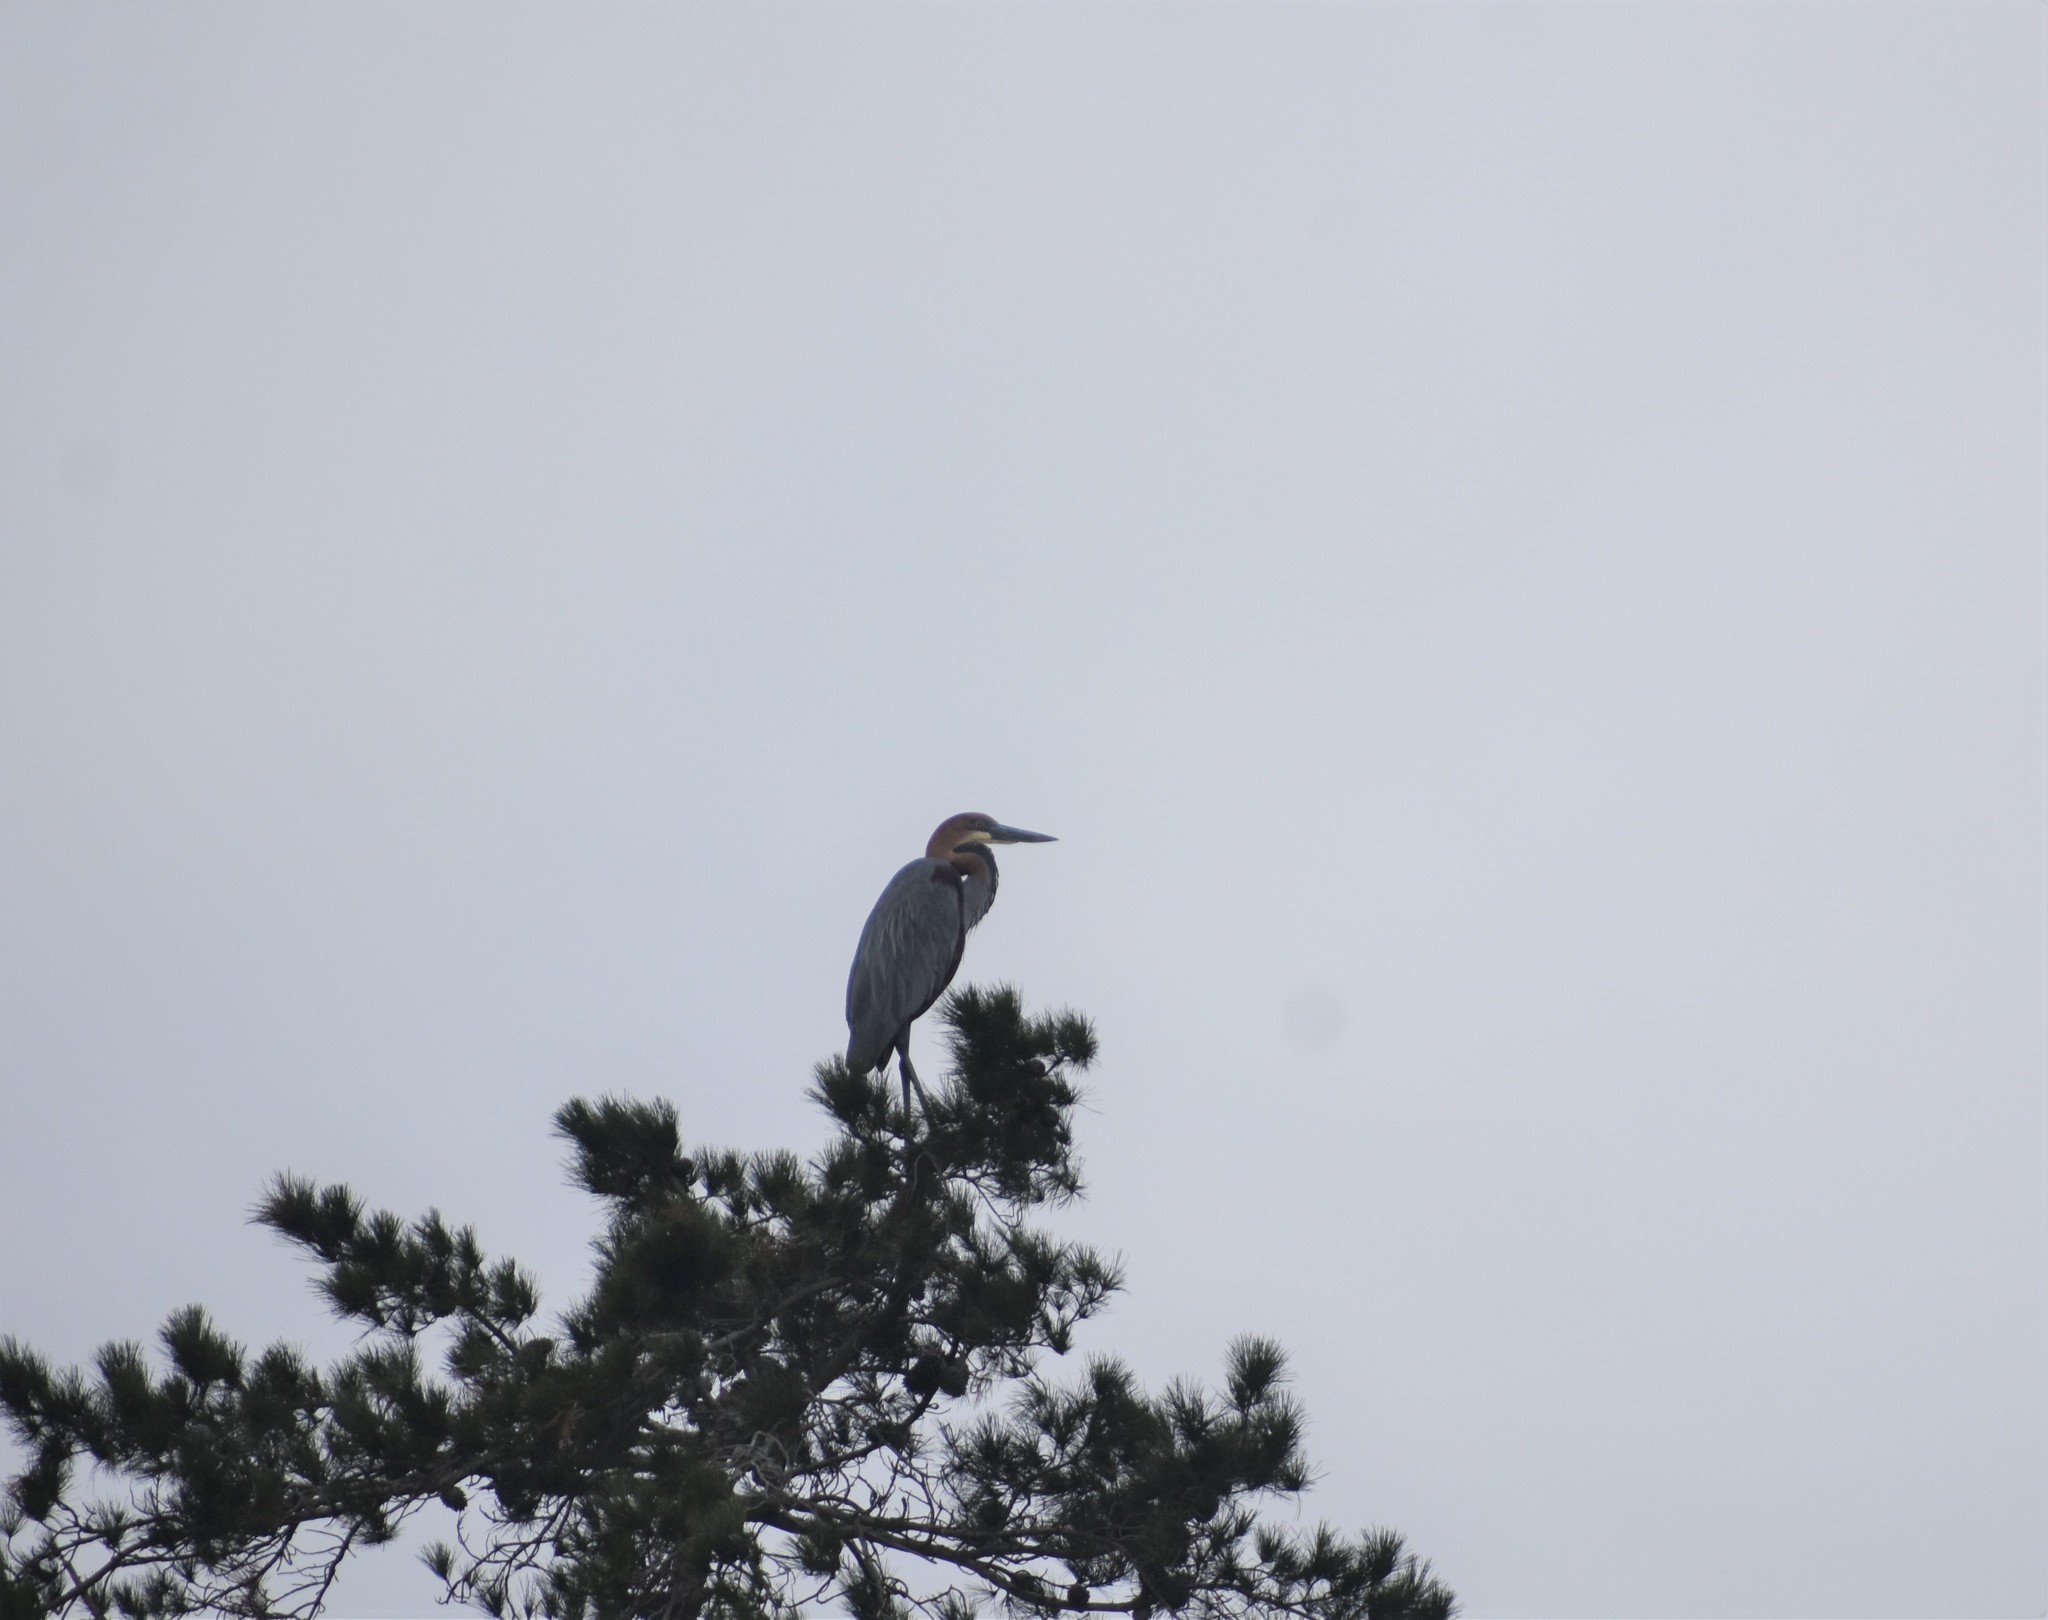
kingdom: Animalia
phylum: Chordata
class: Aves
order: Pelecaniformes
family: Ardeidae
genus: Ardea
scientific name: Ardea goliath
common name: Goliath heron
